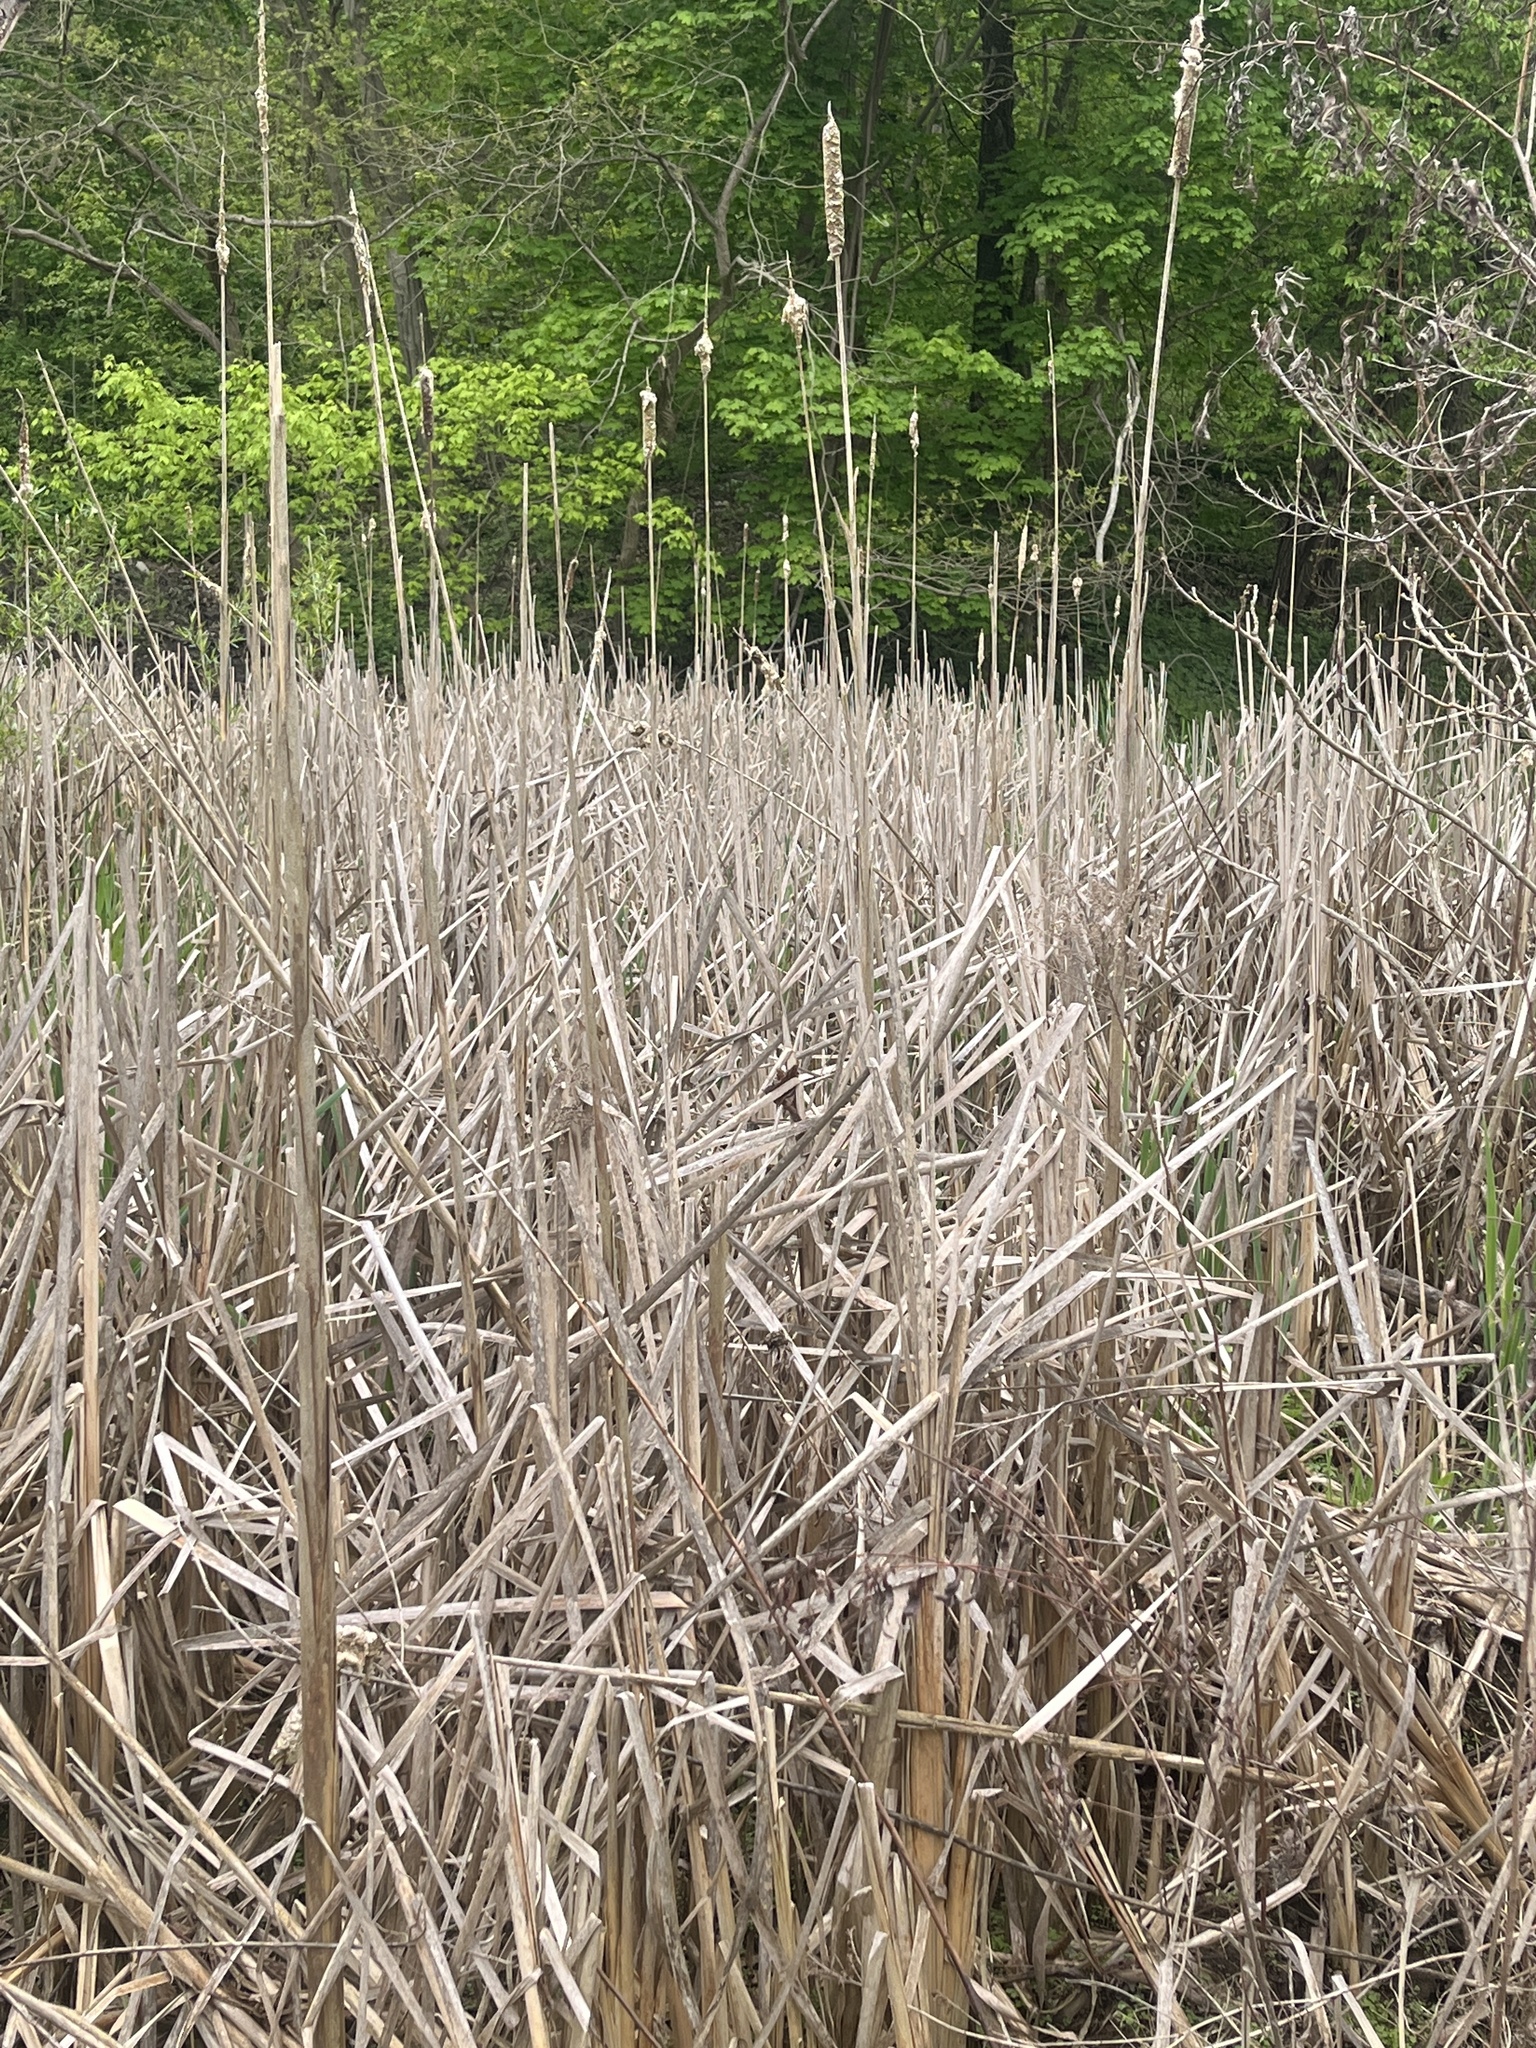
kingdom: Plantae
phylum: Tracheophyta
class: Liliopsida
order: Poales
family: Typhaceae
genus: Typha
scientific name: Typha latifolia
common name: Broadleaf cattail
